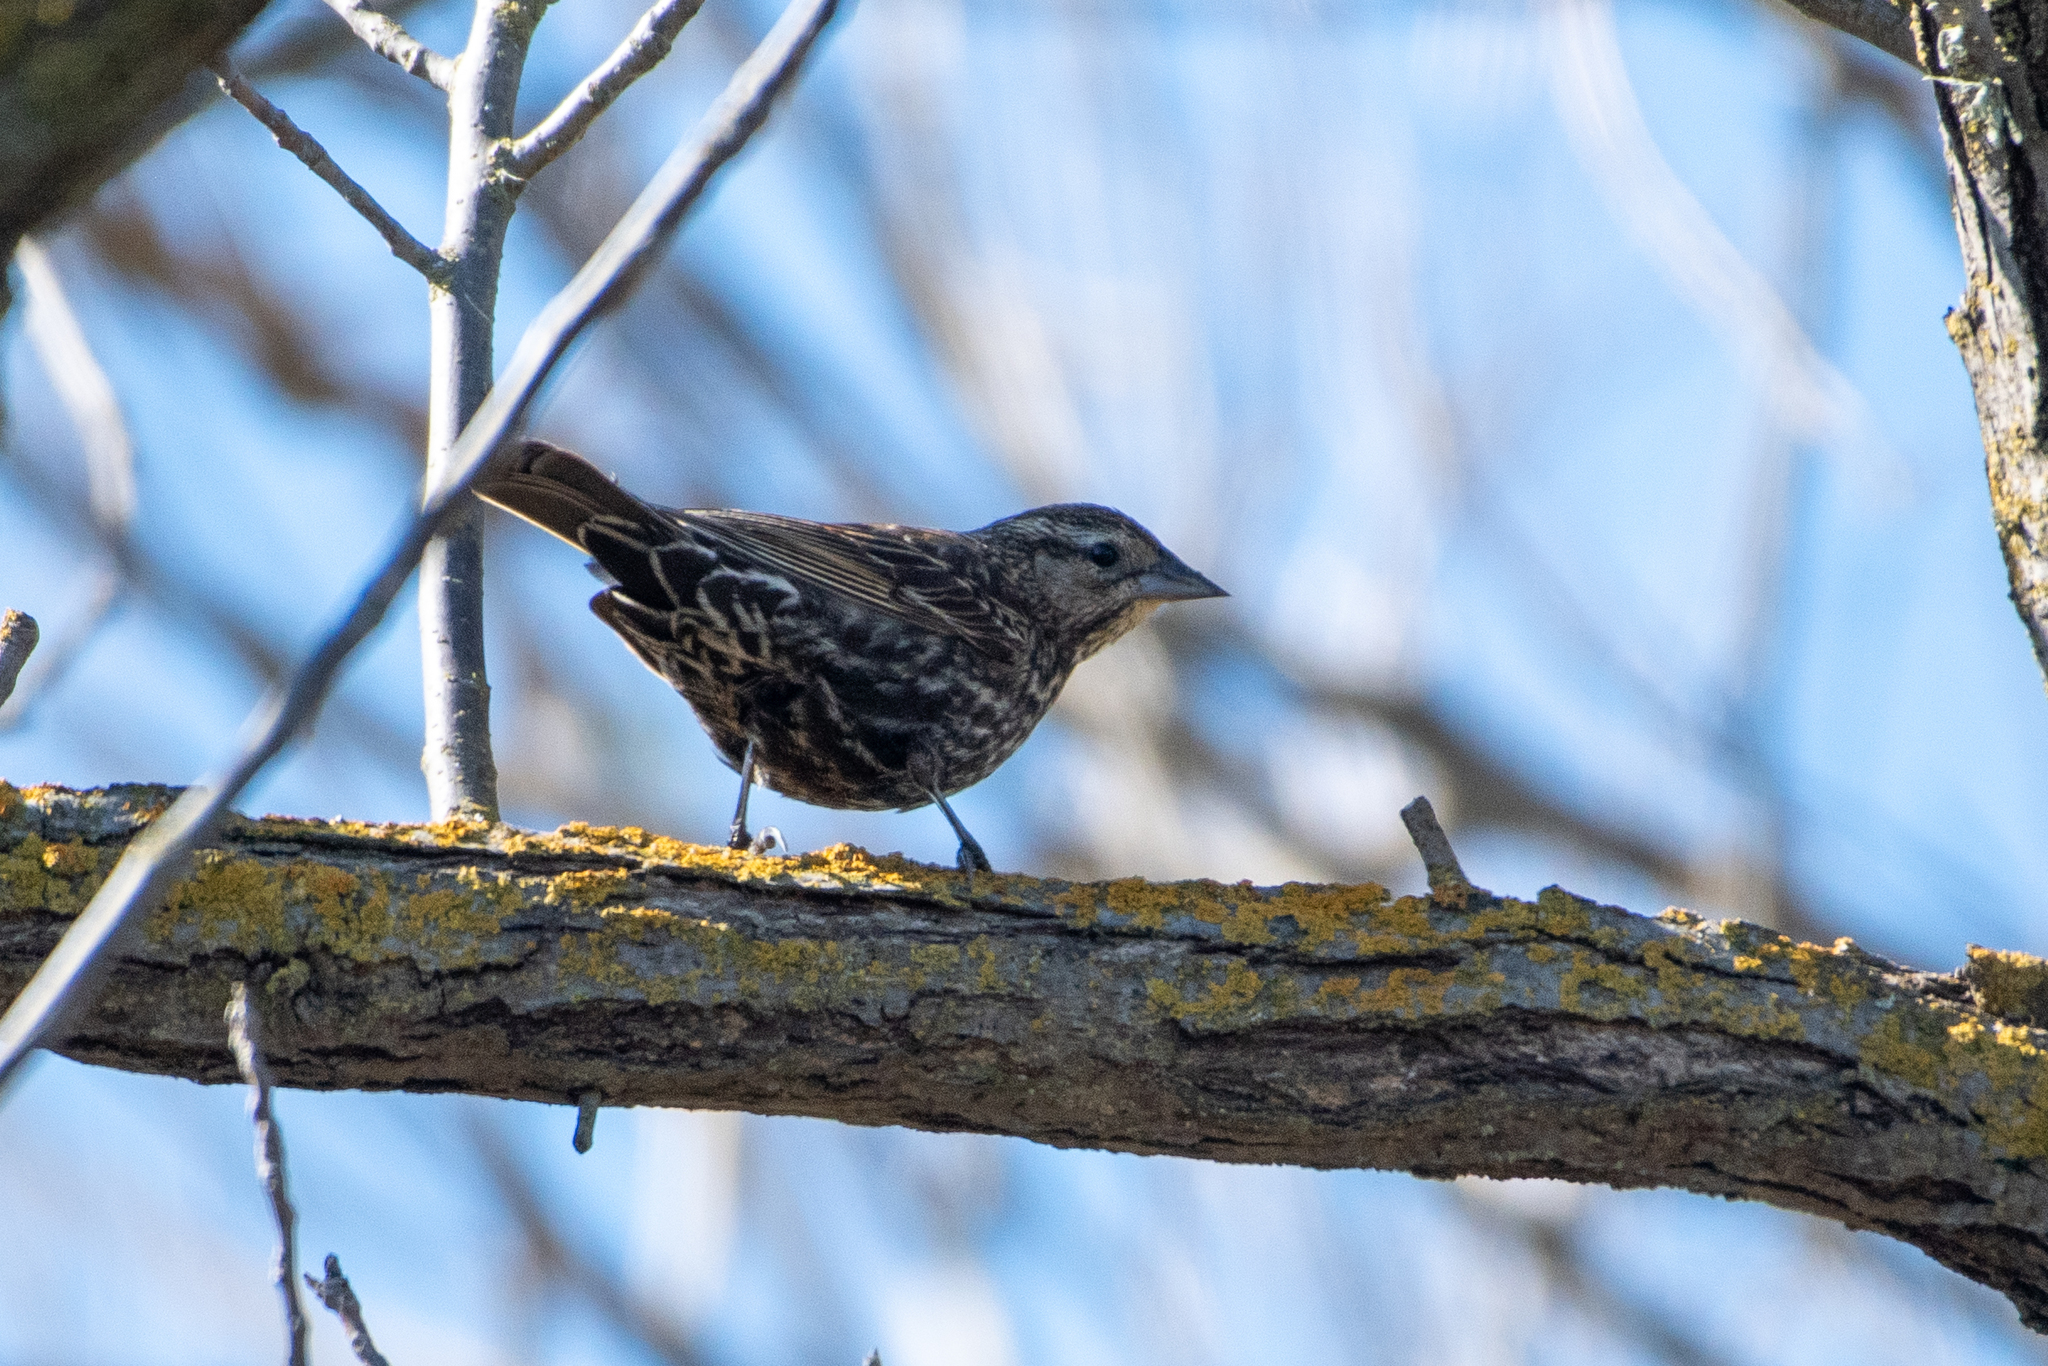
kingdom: Animalia
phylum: Chordata
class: Aves
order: Passeriformes
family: Icteridae
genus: Agelaius
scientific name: Agelaius phoeniceus
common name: Red-winged blackbird
